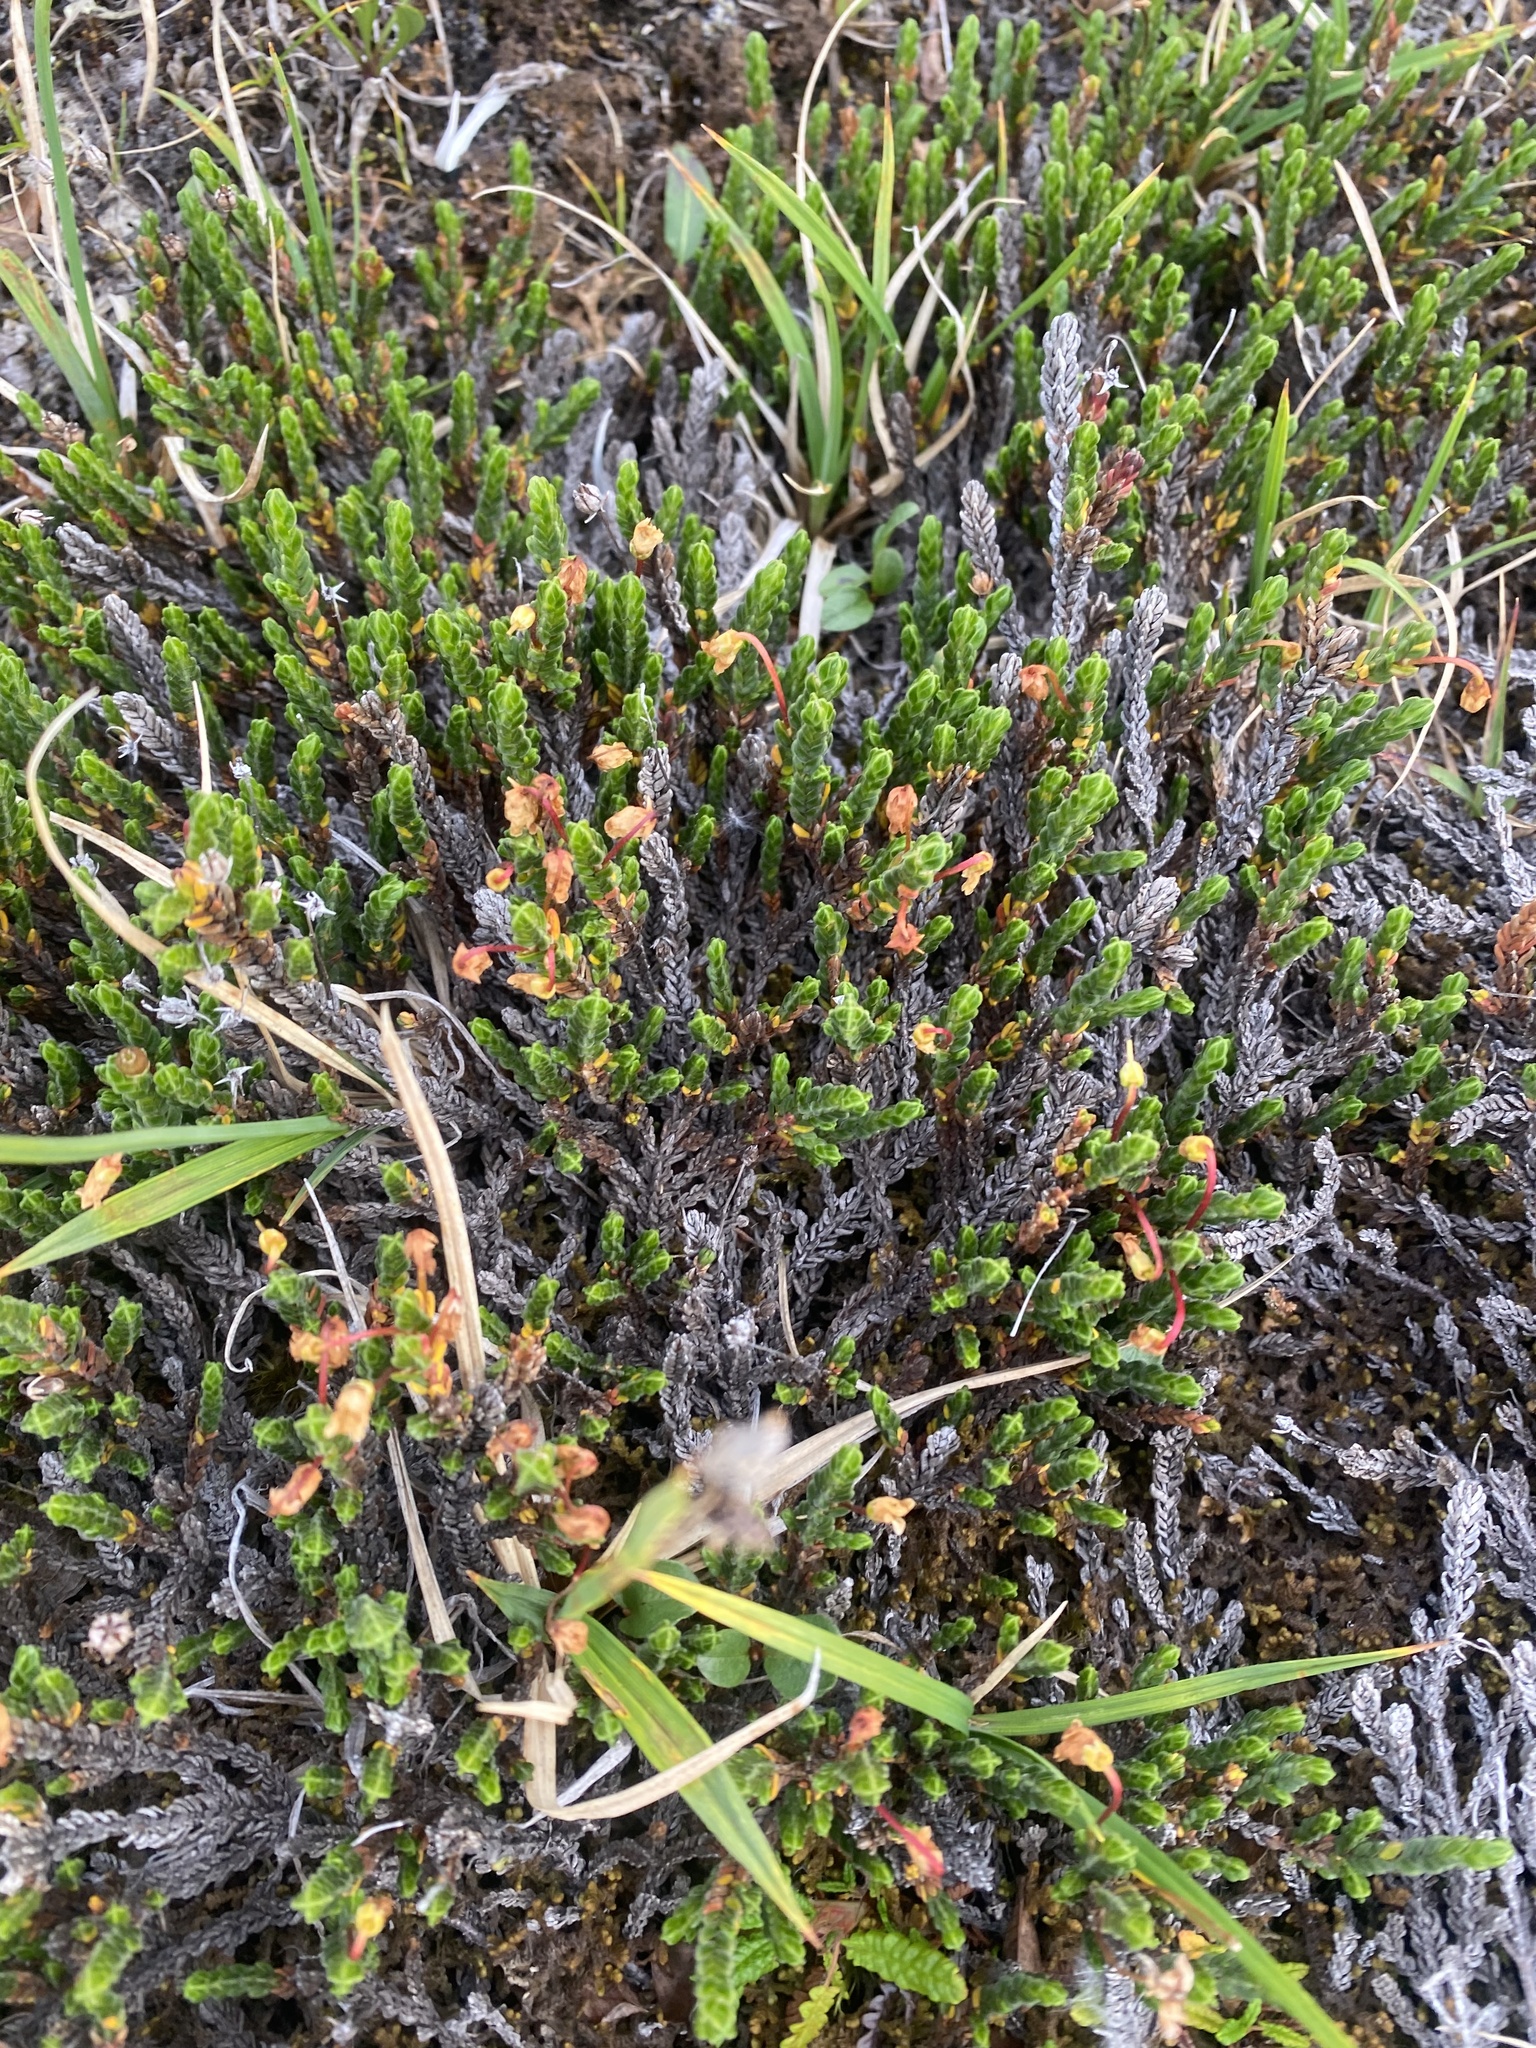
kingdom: Plantae
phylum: Tracheophyta
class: Magnoliopsida
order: Ericales
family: Ericaceae
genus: Cassiope
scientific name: Cassiope tetragona
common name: Arctic bell heather
